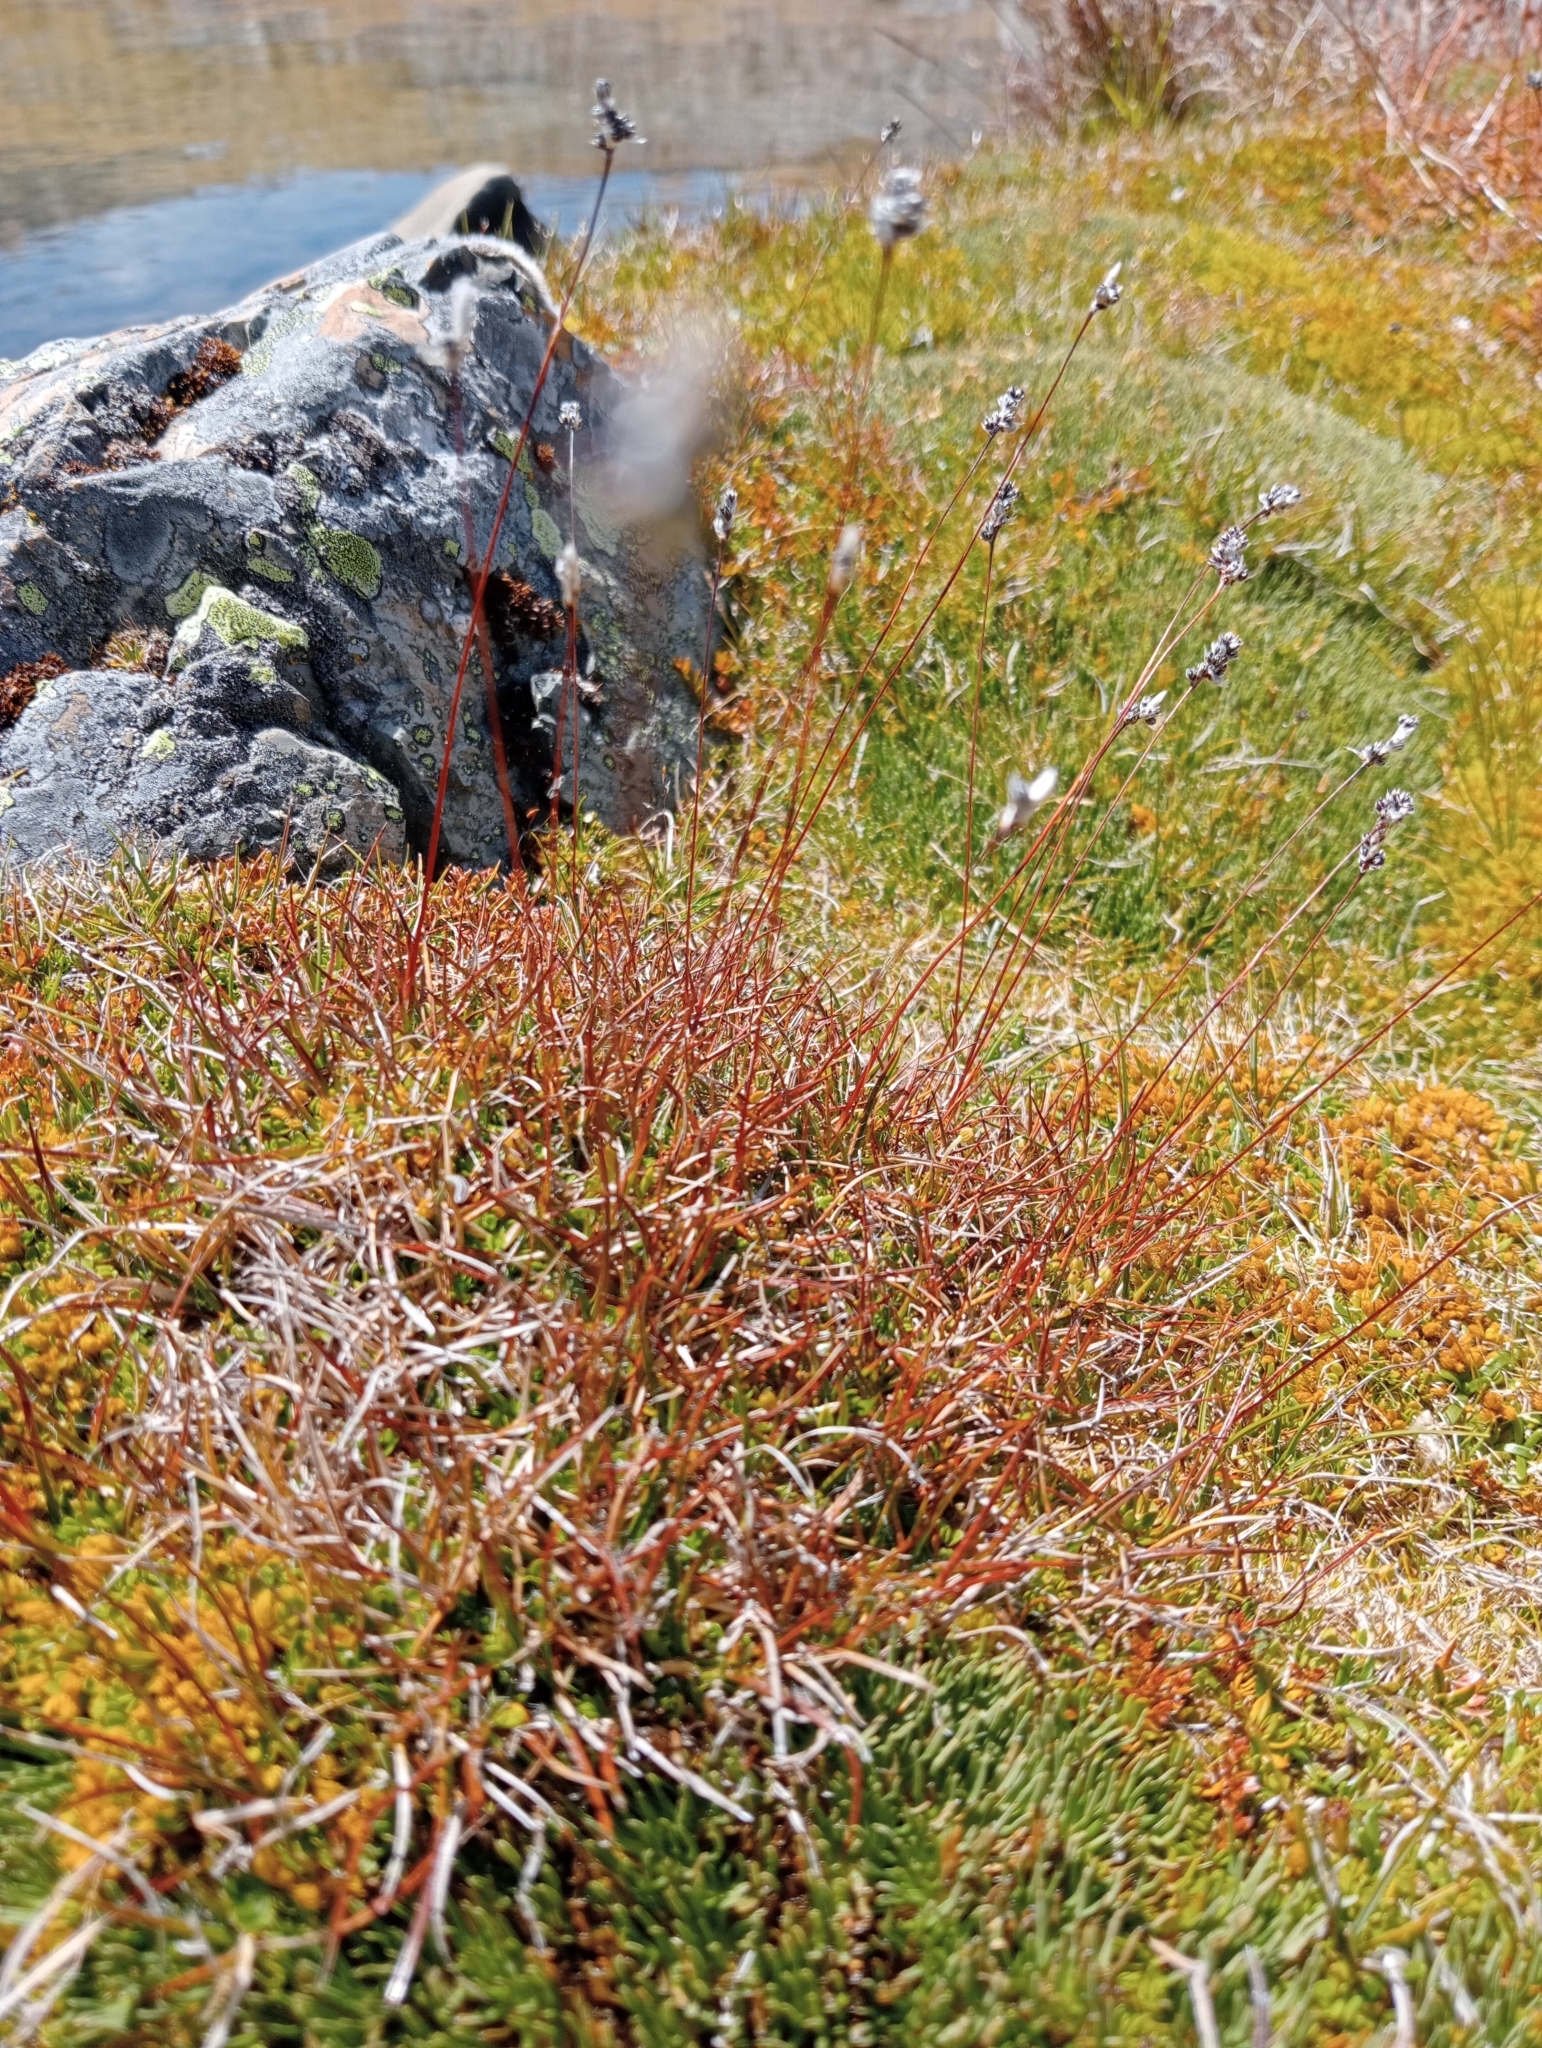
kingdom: Plantae
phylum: Tracheophyta
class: Liliopsida
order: Poales
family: Juncaceae
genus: Luzula
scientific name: Luzula leptophylla
